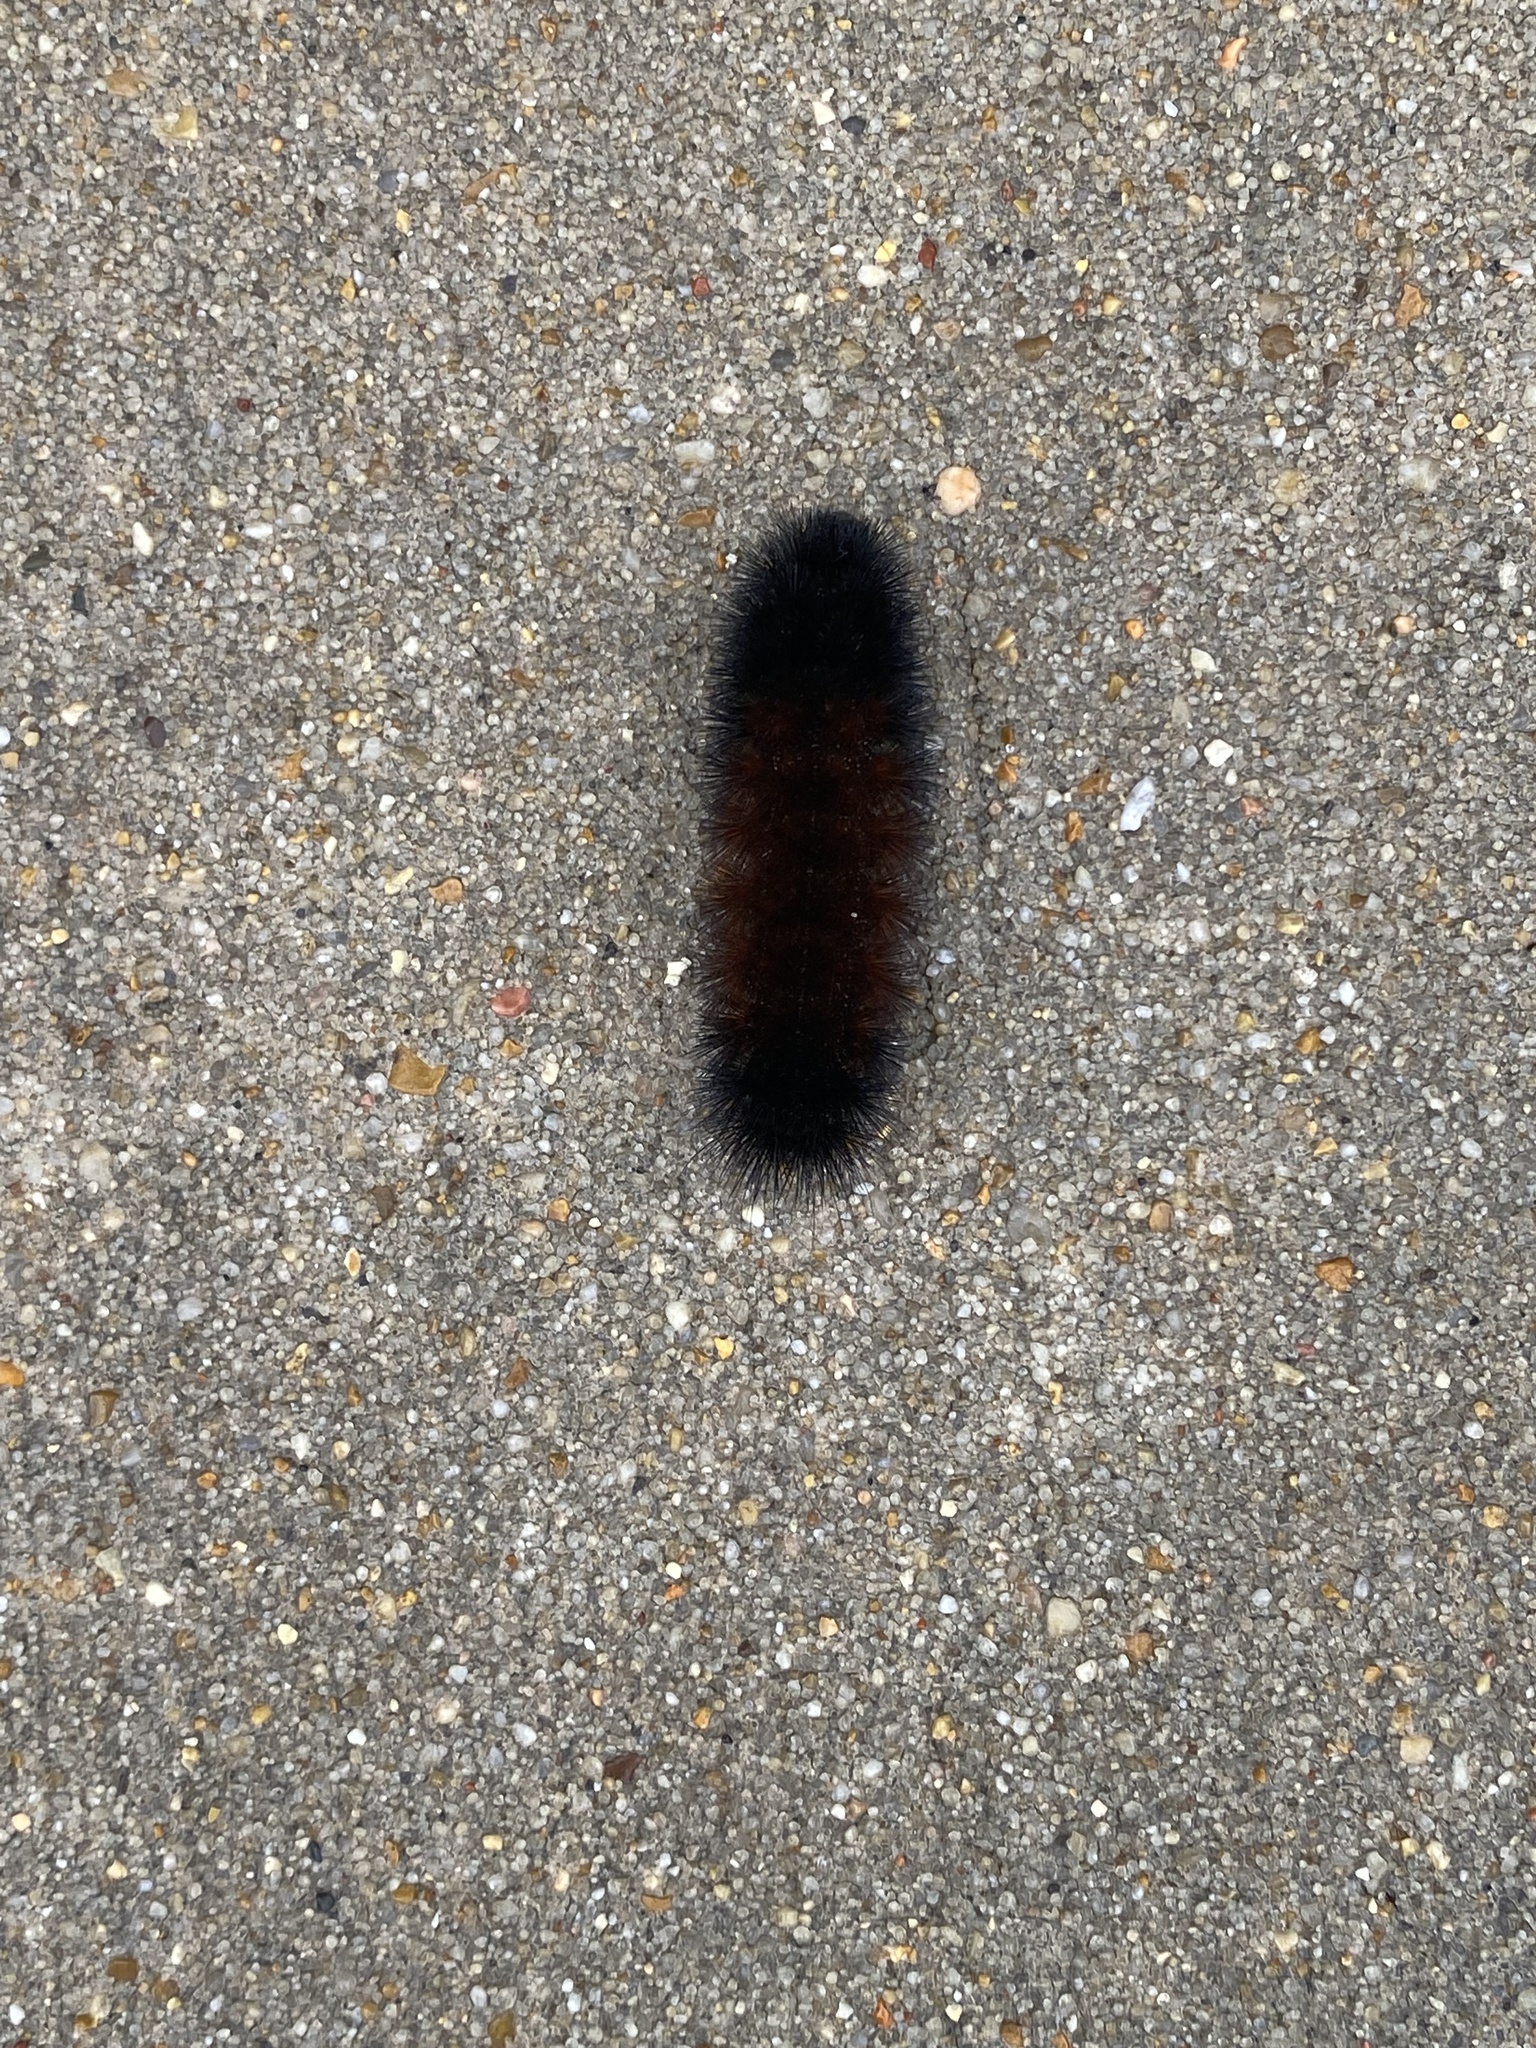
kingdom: Animalia
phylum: Arthropoda
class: Insecta
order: Lepidoptera
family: Erebidae
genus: Pyrrharctia
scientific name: Pyrrharctia isabella
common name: Isabella tiger moth
